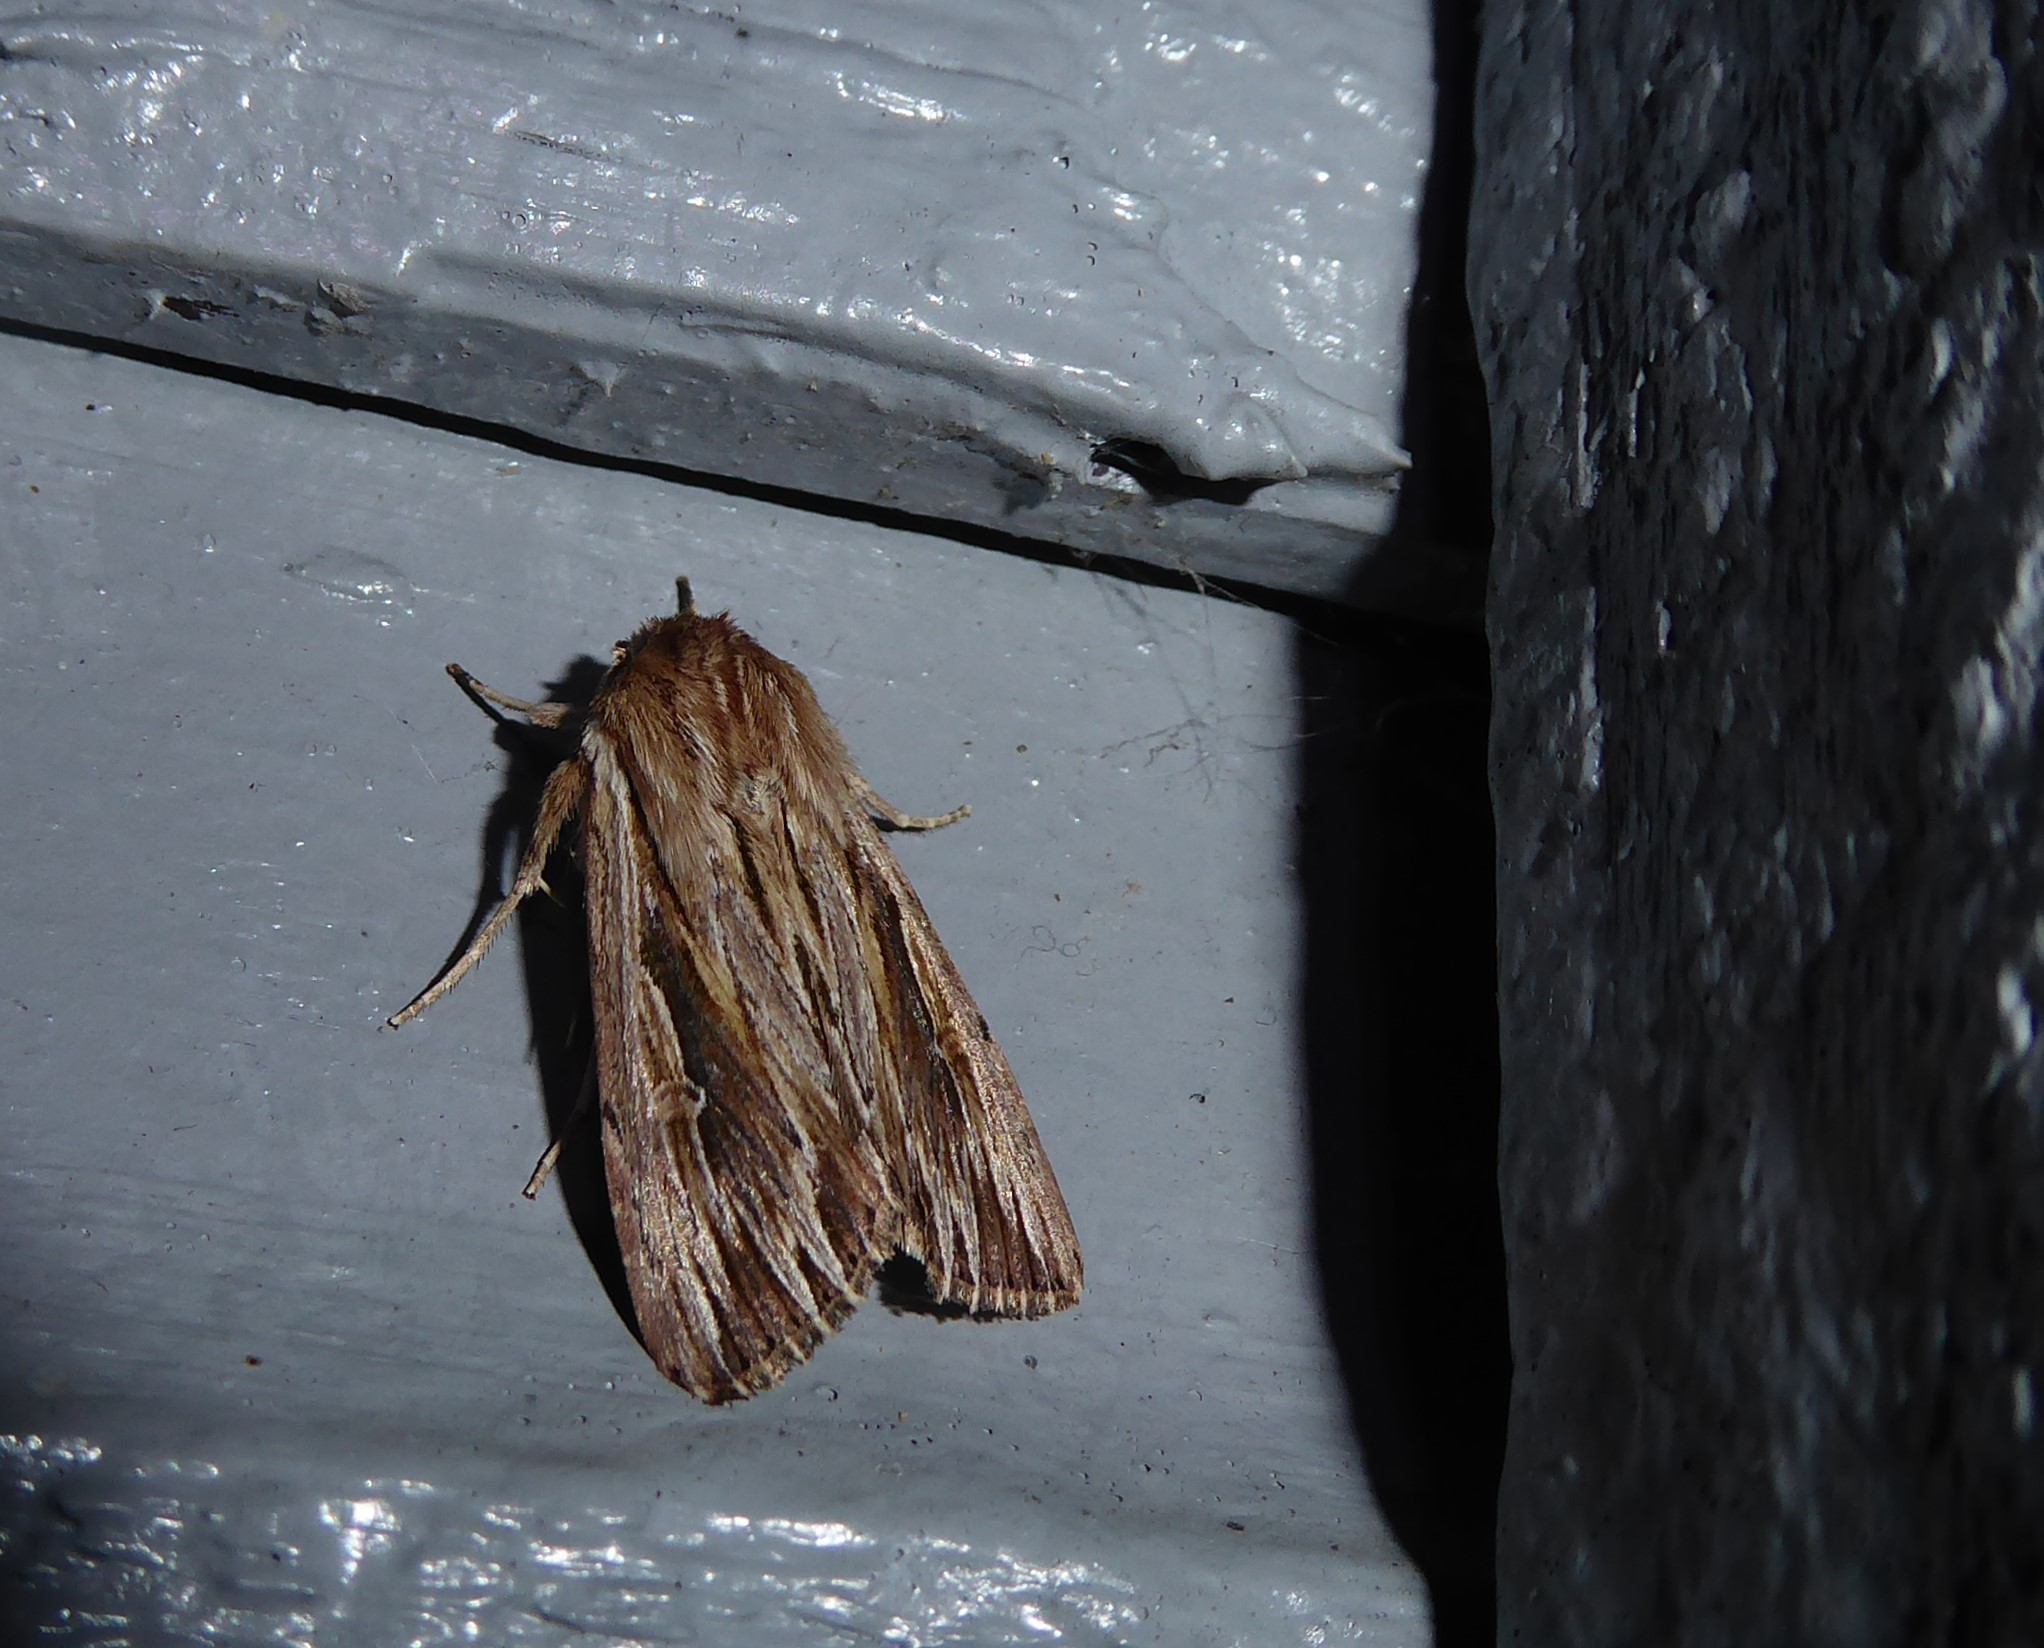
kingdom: Animalia
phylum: Arthropoda
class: Insecta
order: Lepidoptera
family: Noctuidae
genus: Persectania
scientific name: Persectania aversa
